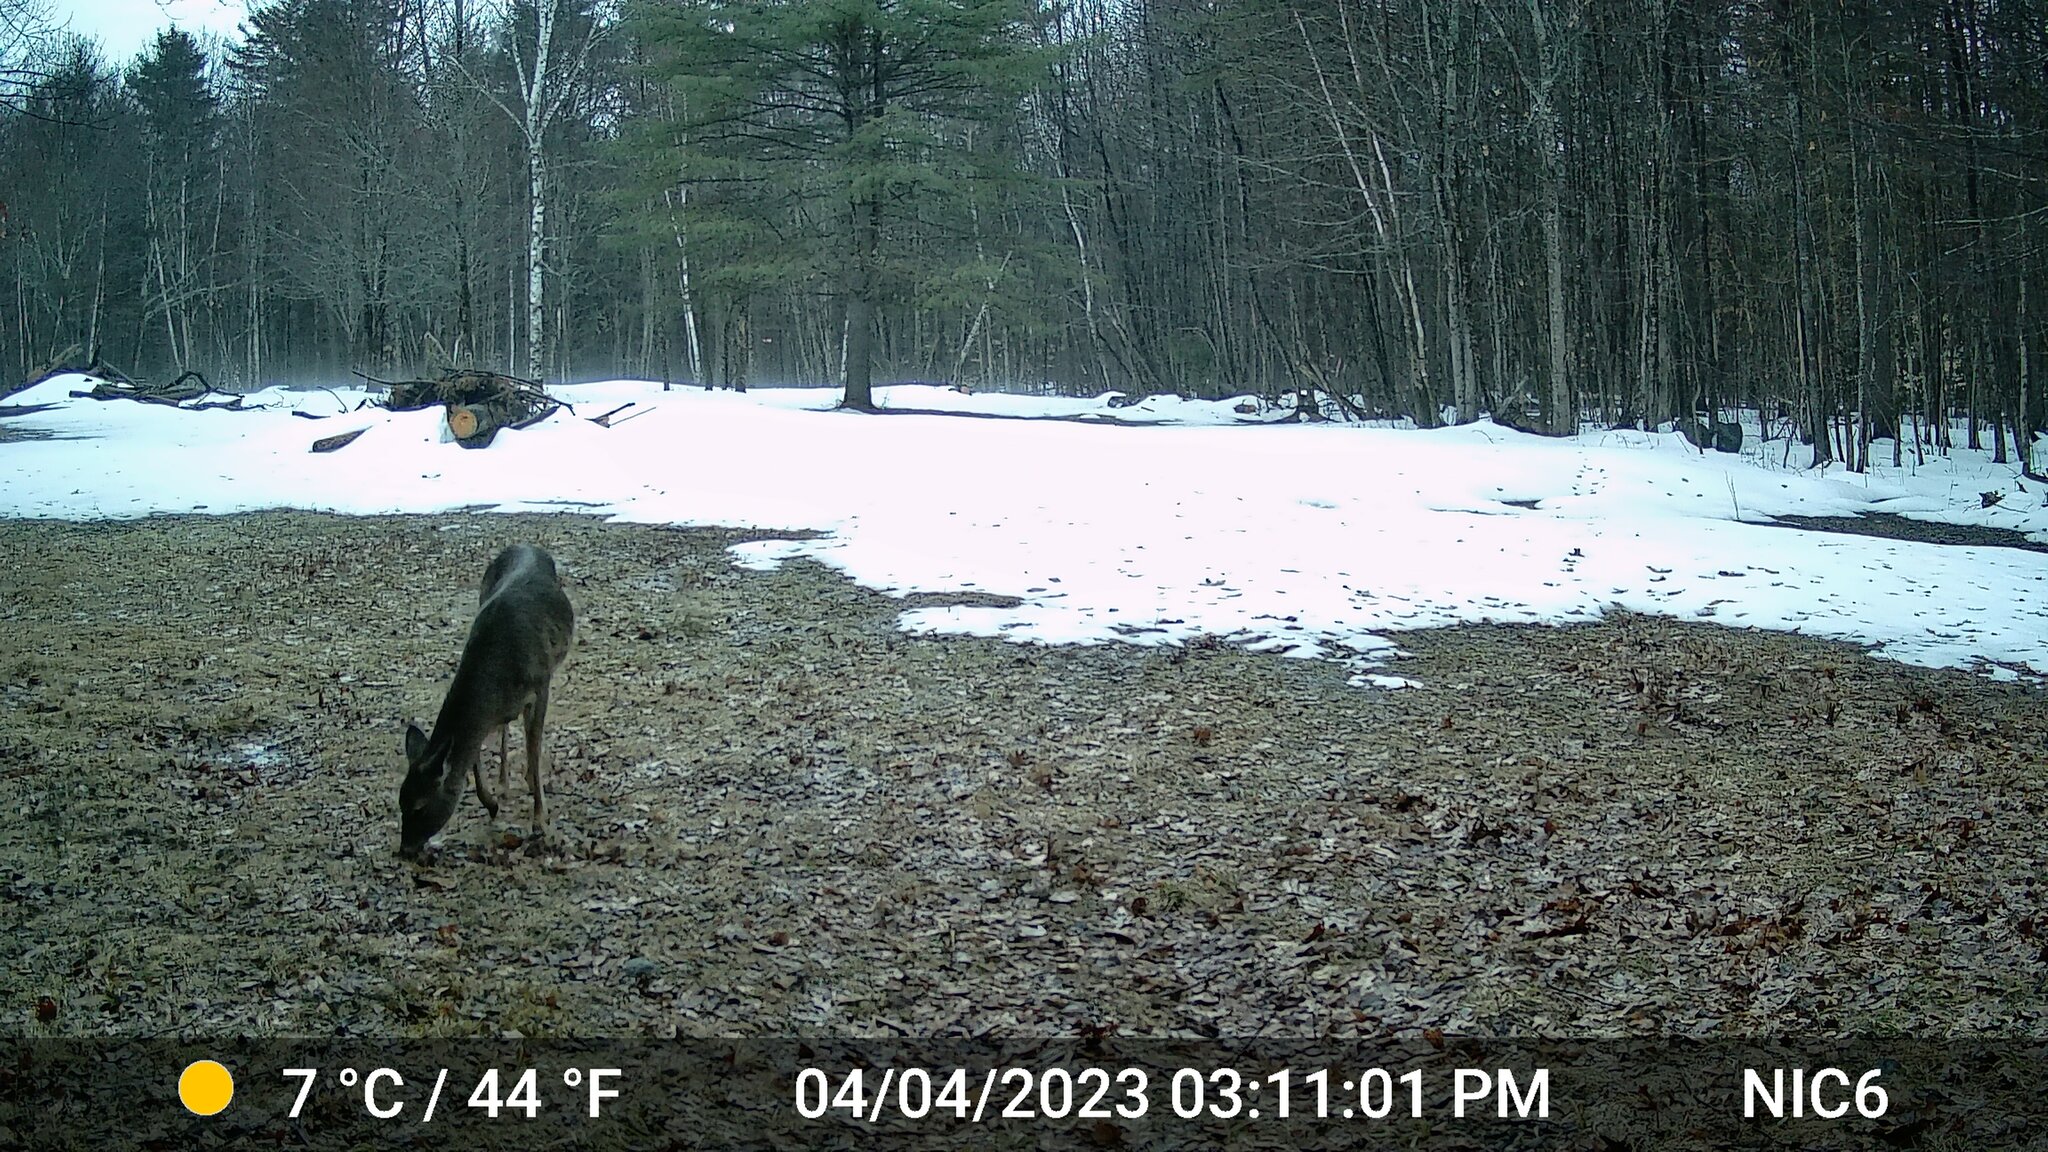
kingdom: Animalia
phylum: Chordata
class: Mammalia
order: Artiodactyla
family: Cervidae
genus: Odocoileus
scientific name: Odocoileus virginianus
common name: White-tailed deer
